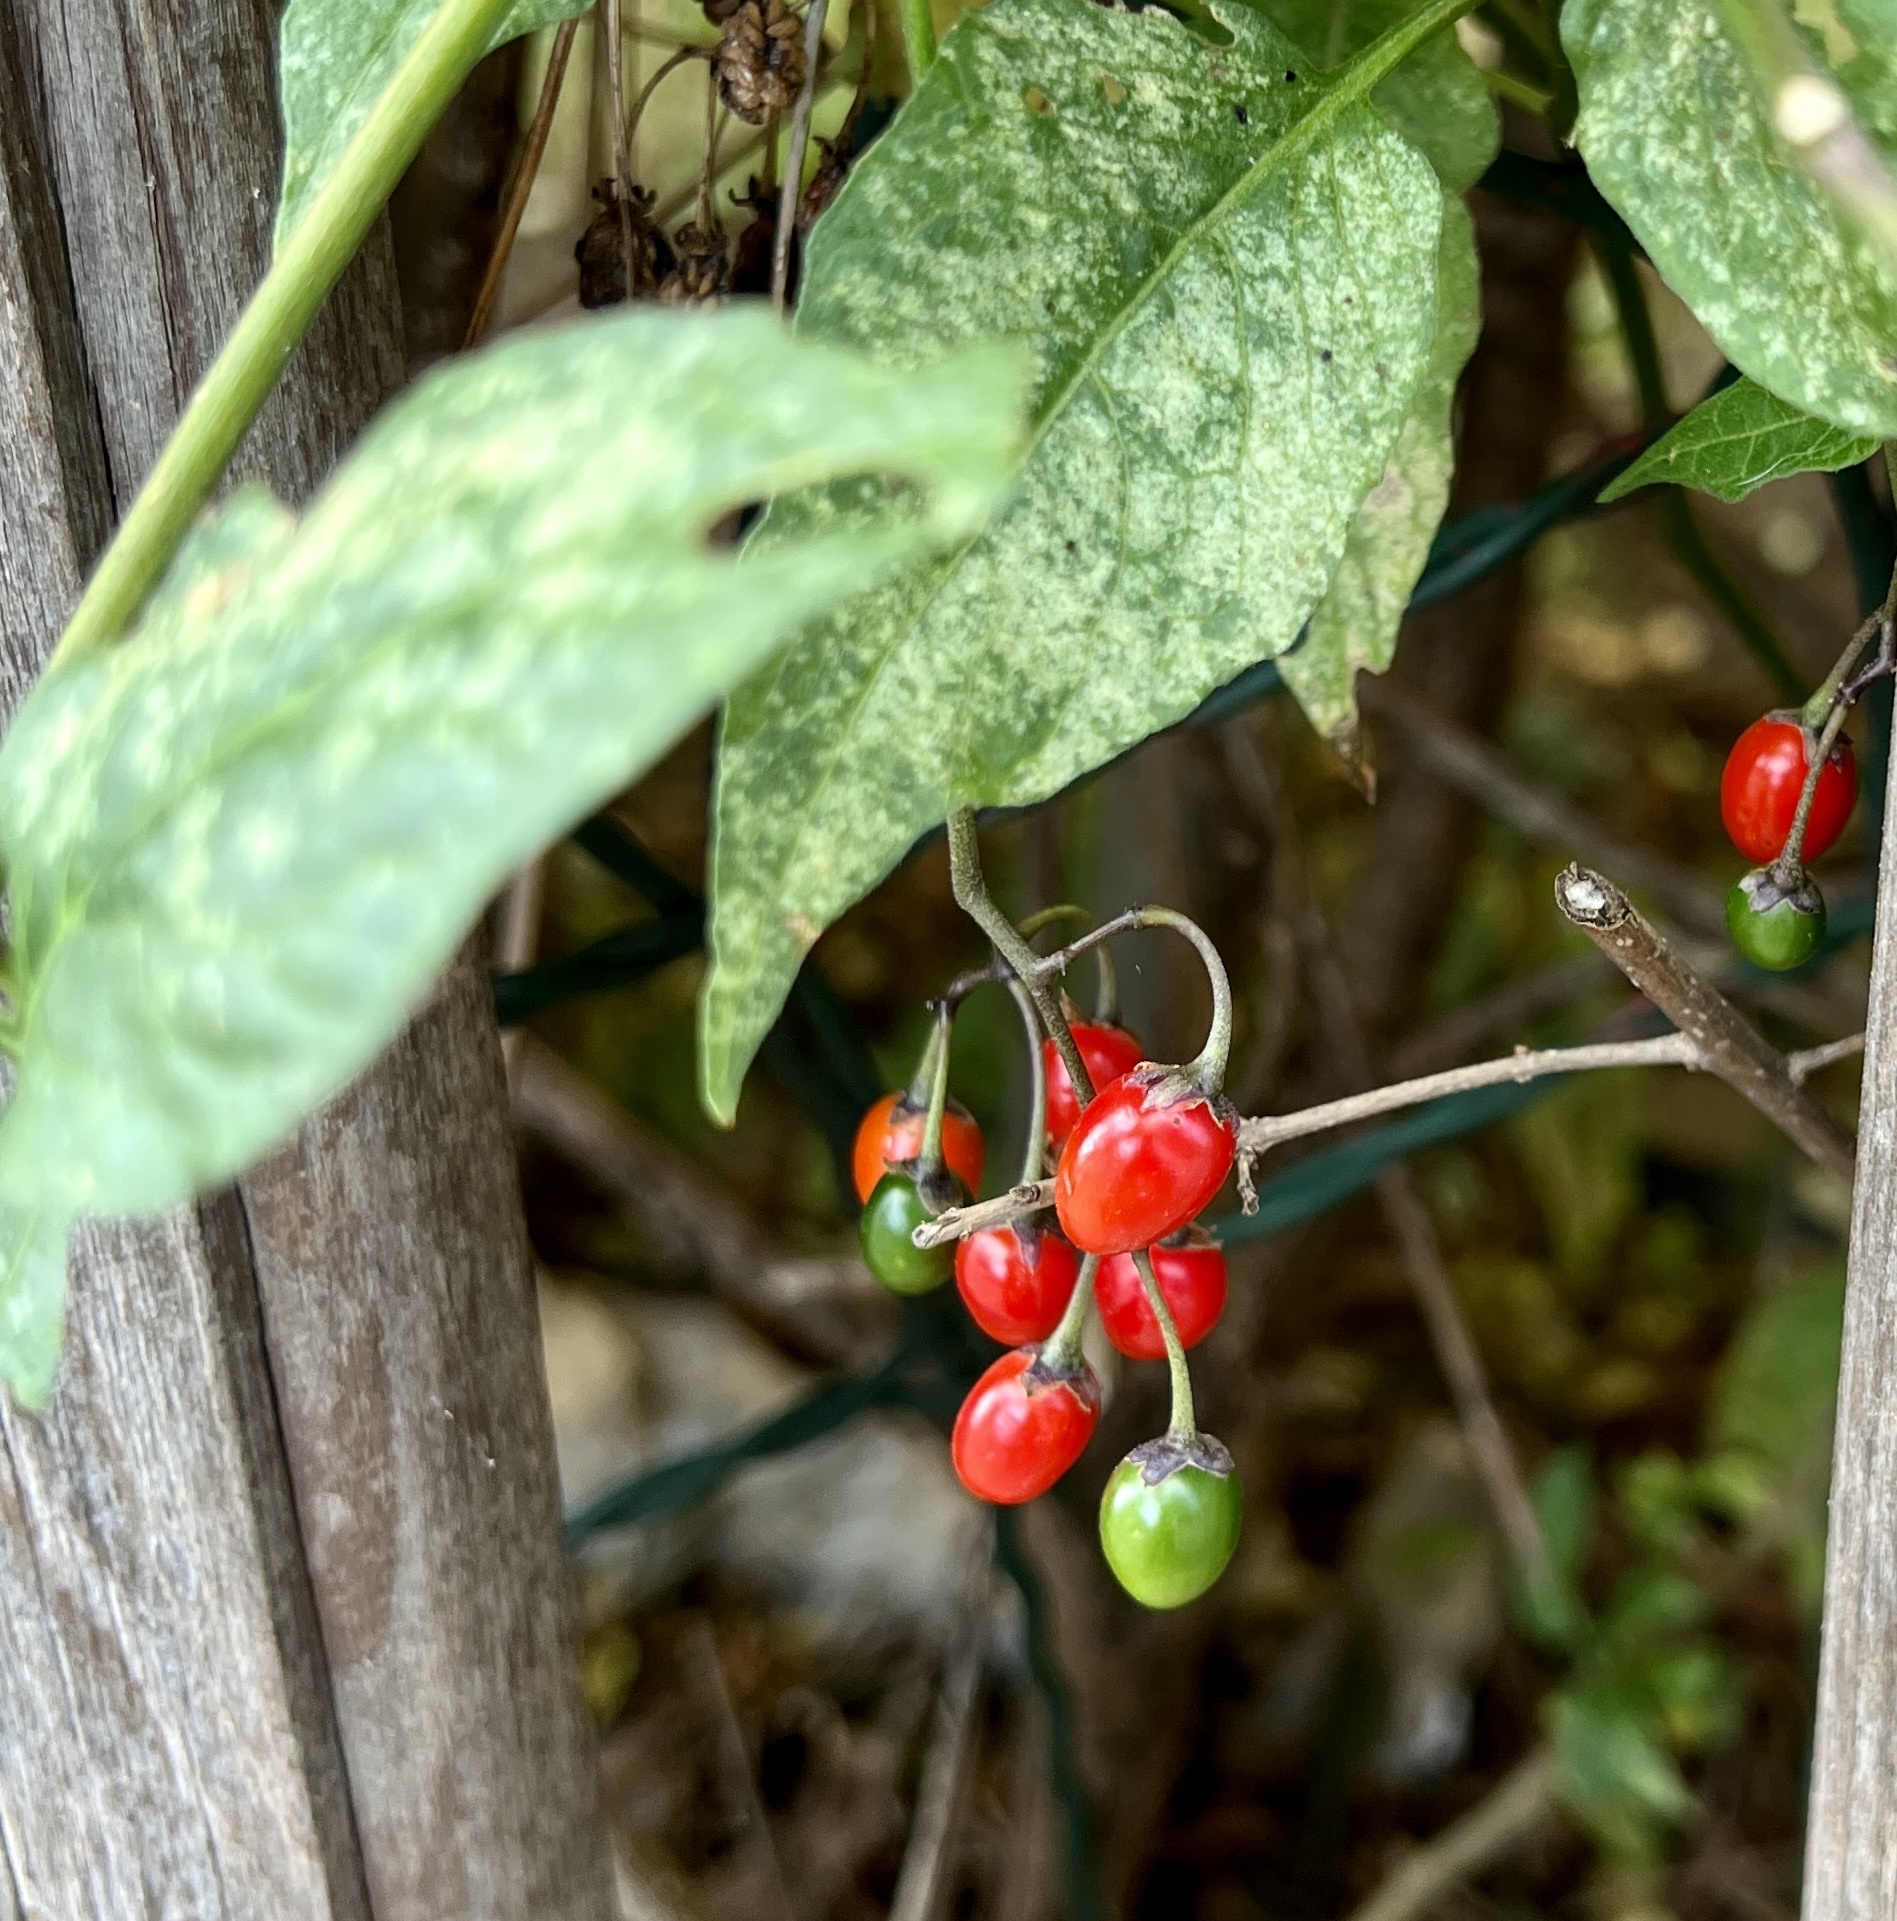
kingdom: Plantae
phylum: Tracheophyta
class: Magnoliopsida
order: Solanales
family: Solanaceae
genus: Solanum
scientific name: Solanum dulcamara
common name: Climbing nightshade
